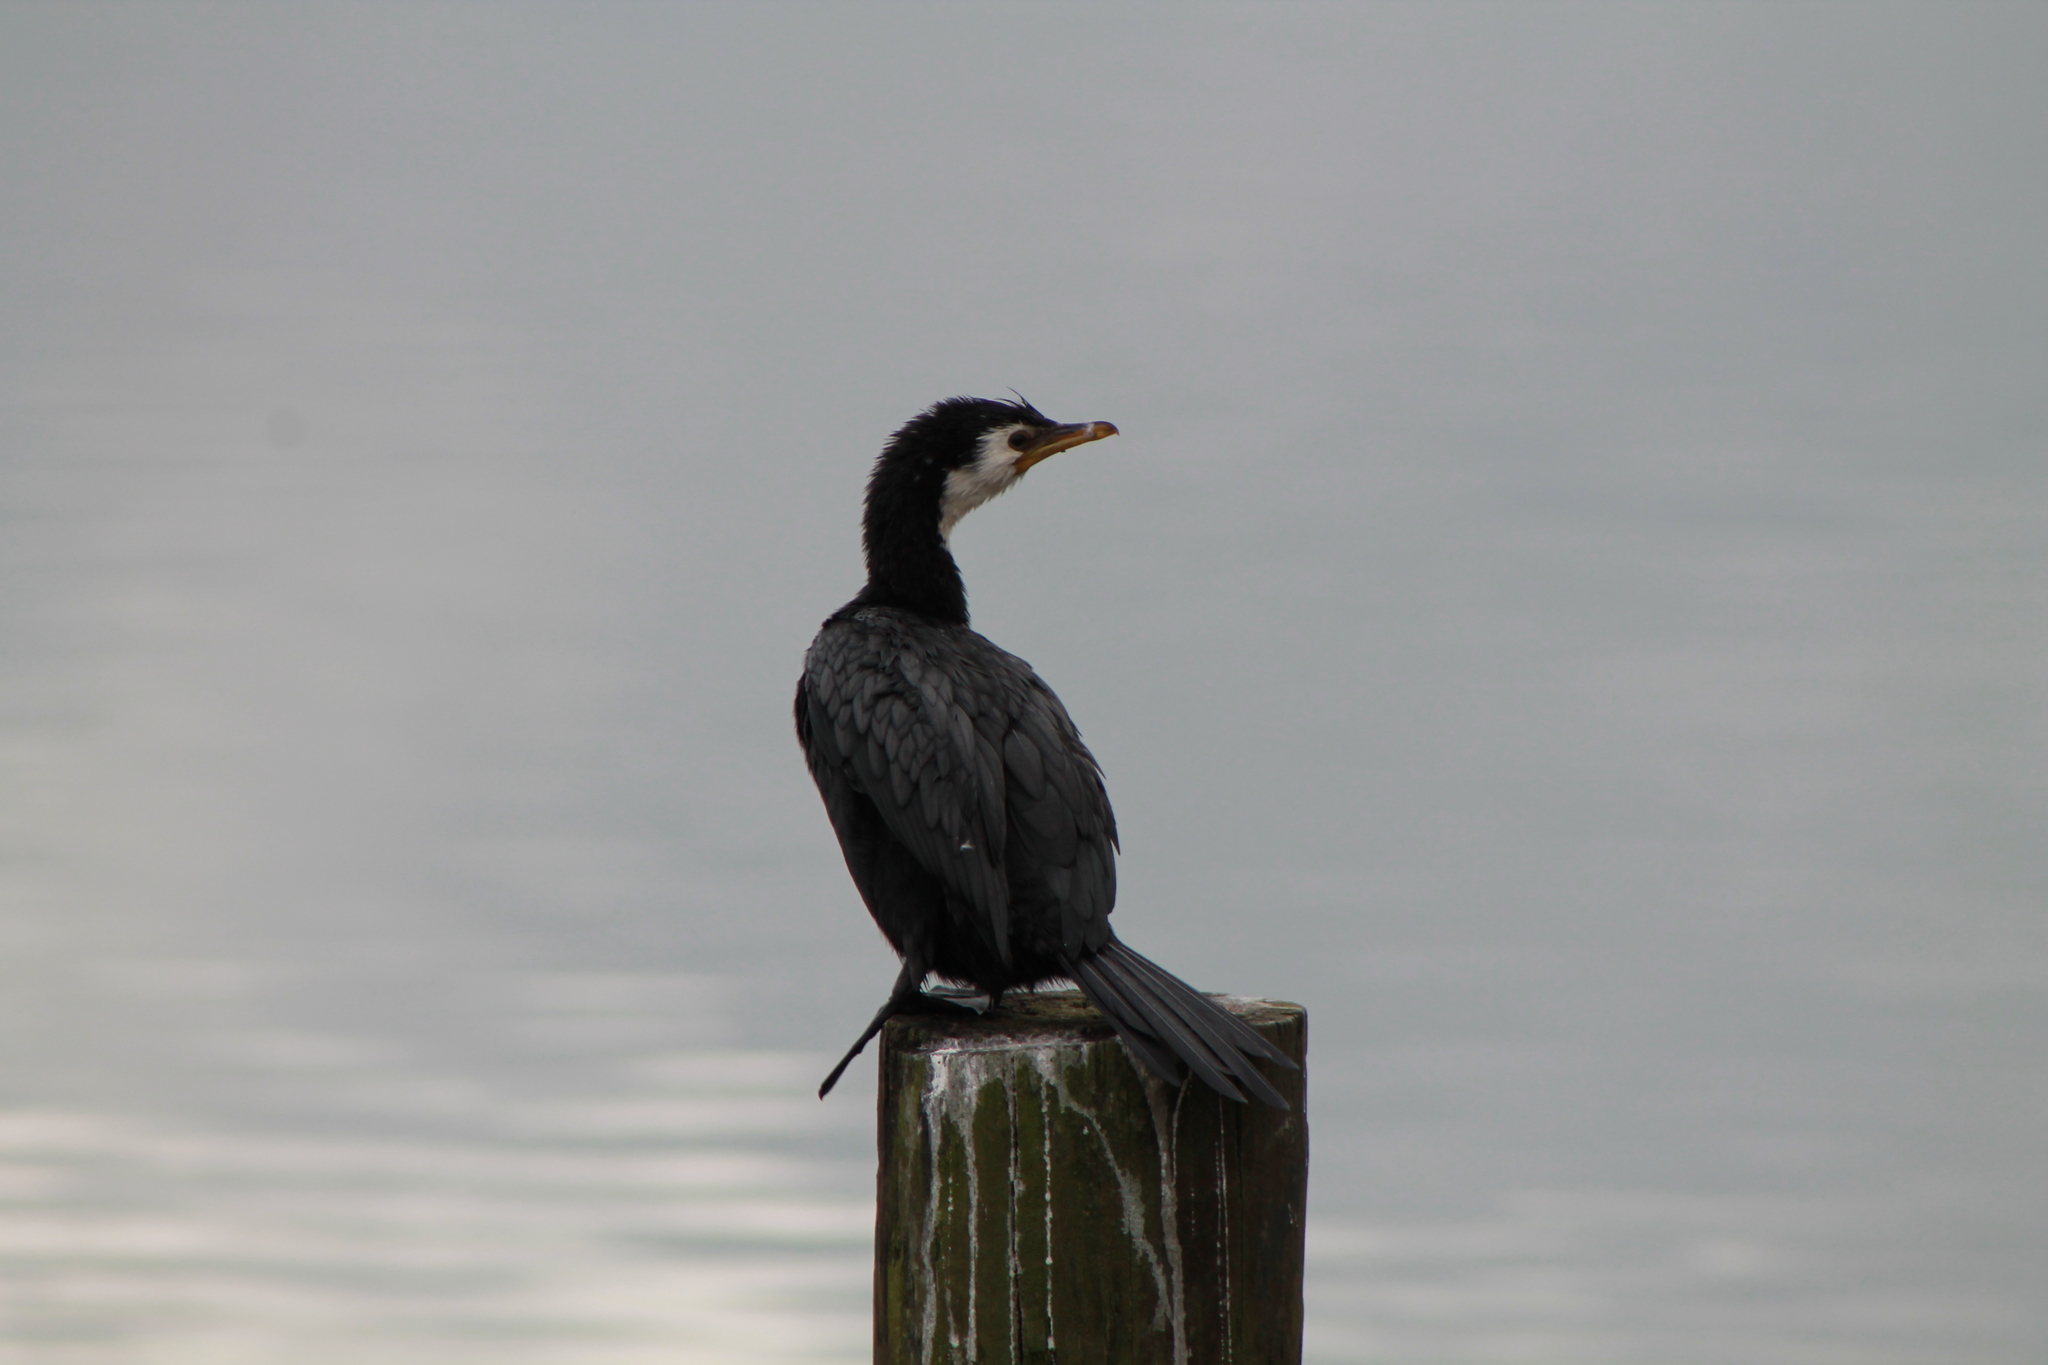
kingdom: Animalia
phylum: Chordata
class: Aves
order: Suliformes
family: Phalacrocoracidae
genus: Microcarbo
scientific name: Microcarbo melanoleucos
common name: Little pied cormorant
